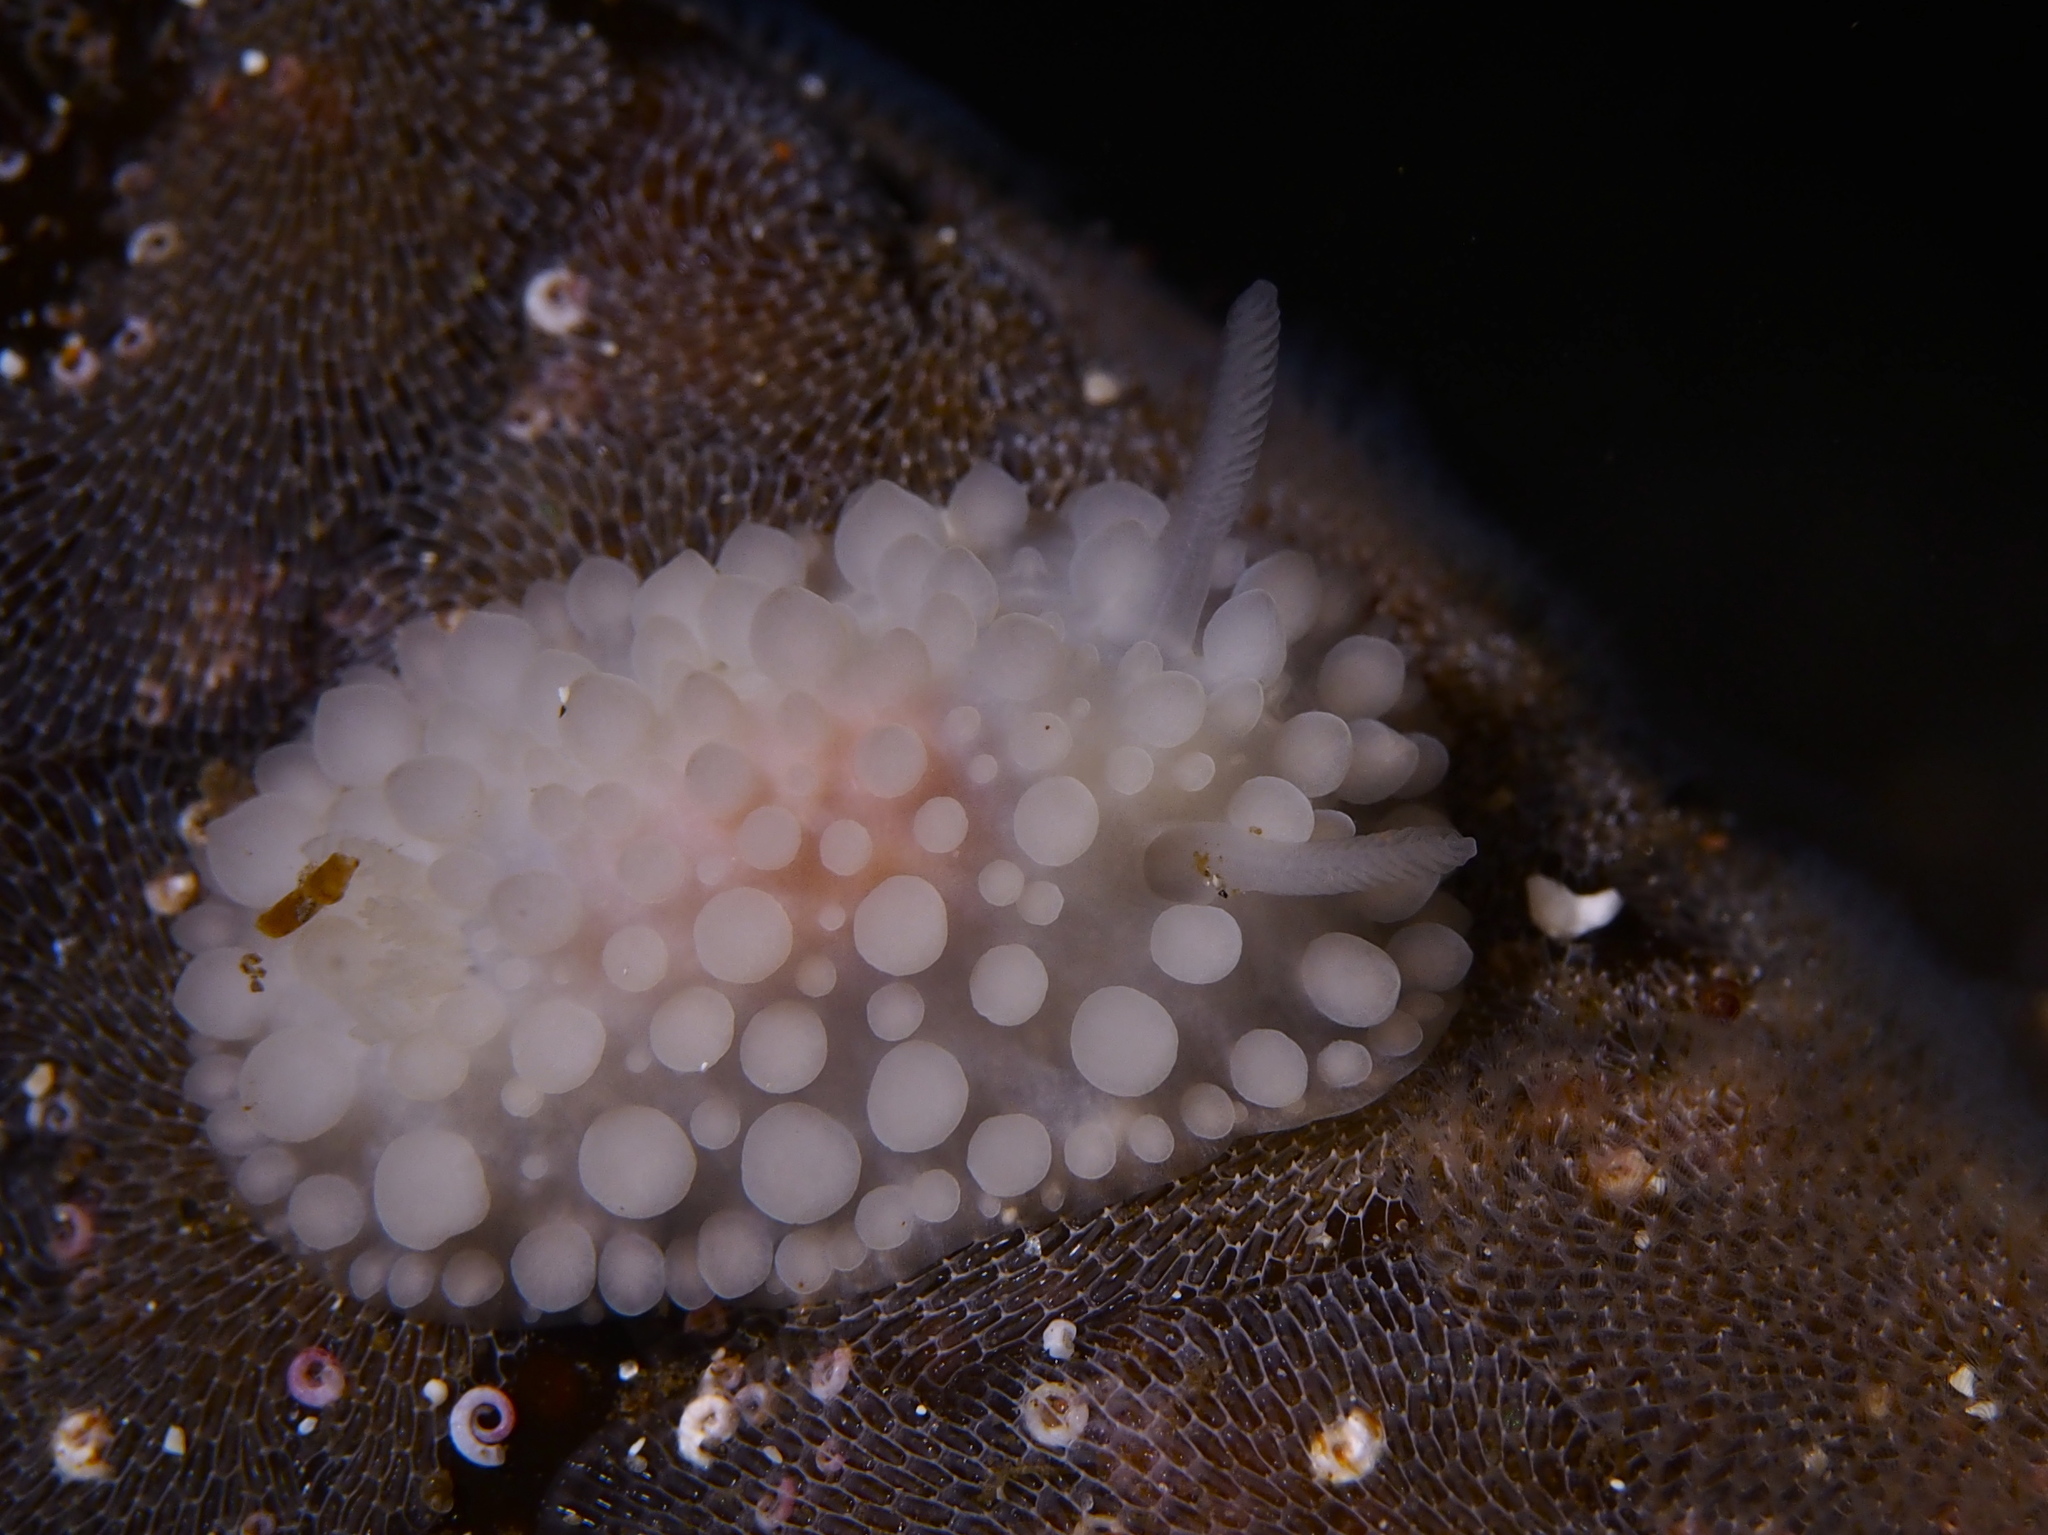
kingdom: Animalia
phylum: Mollusca
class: Gastropoda
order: Nudibranchia
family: Onchidorididae
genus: Adalaria
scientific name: Adalaria loveni
